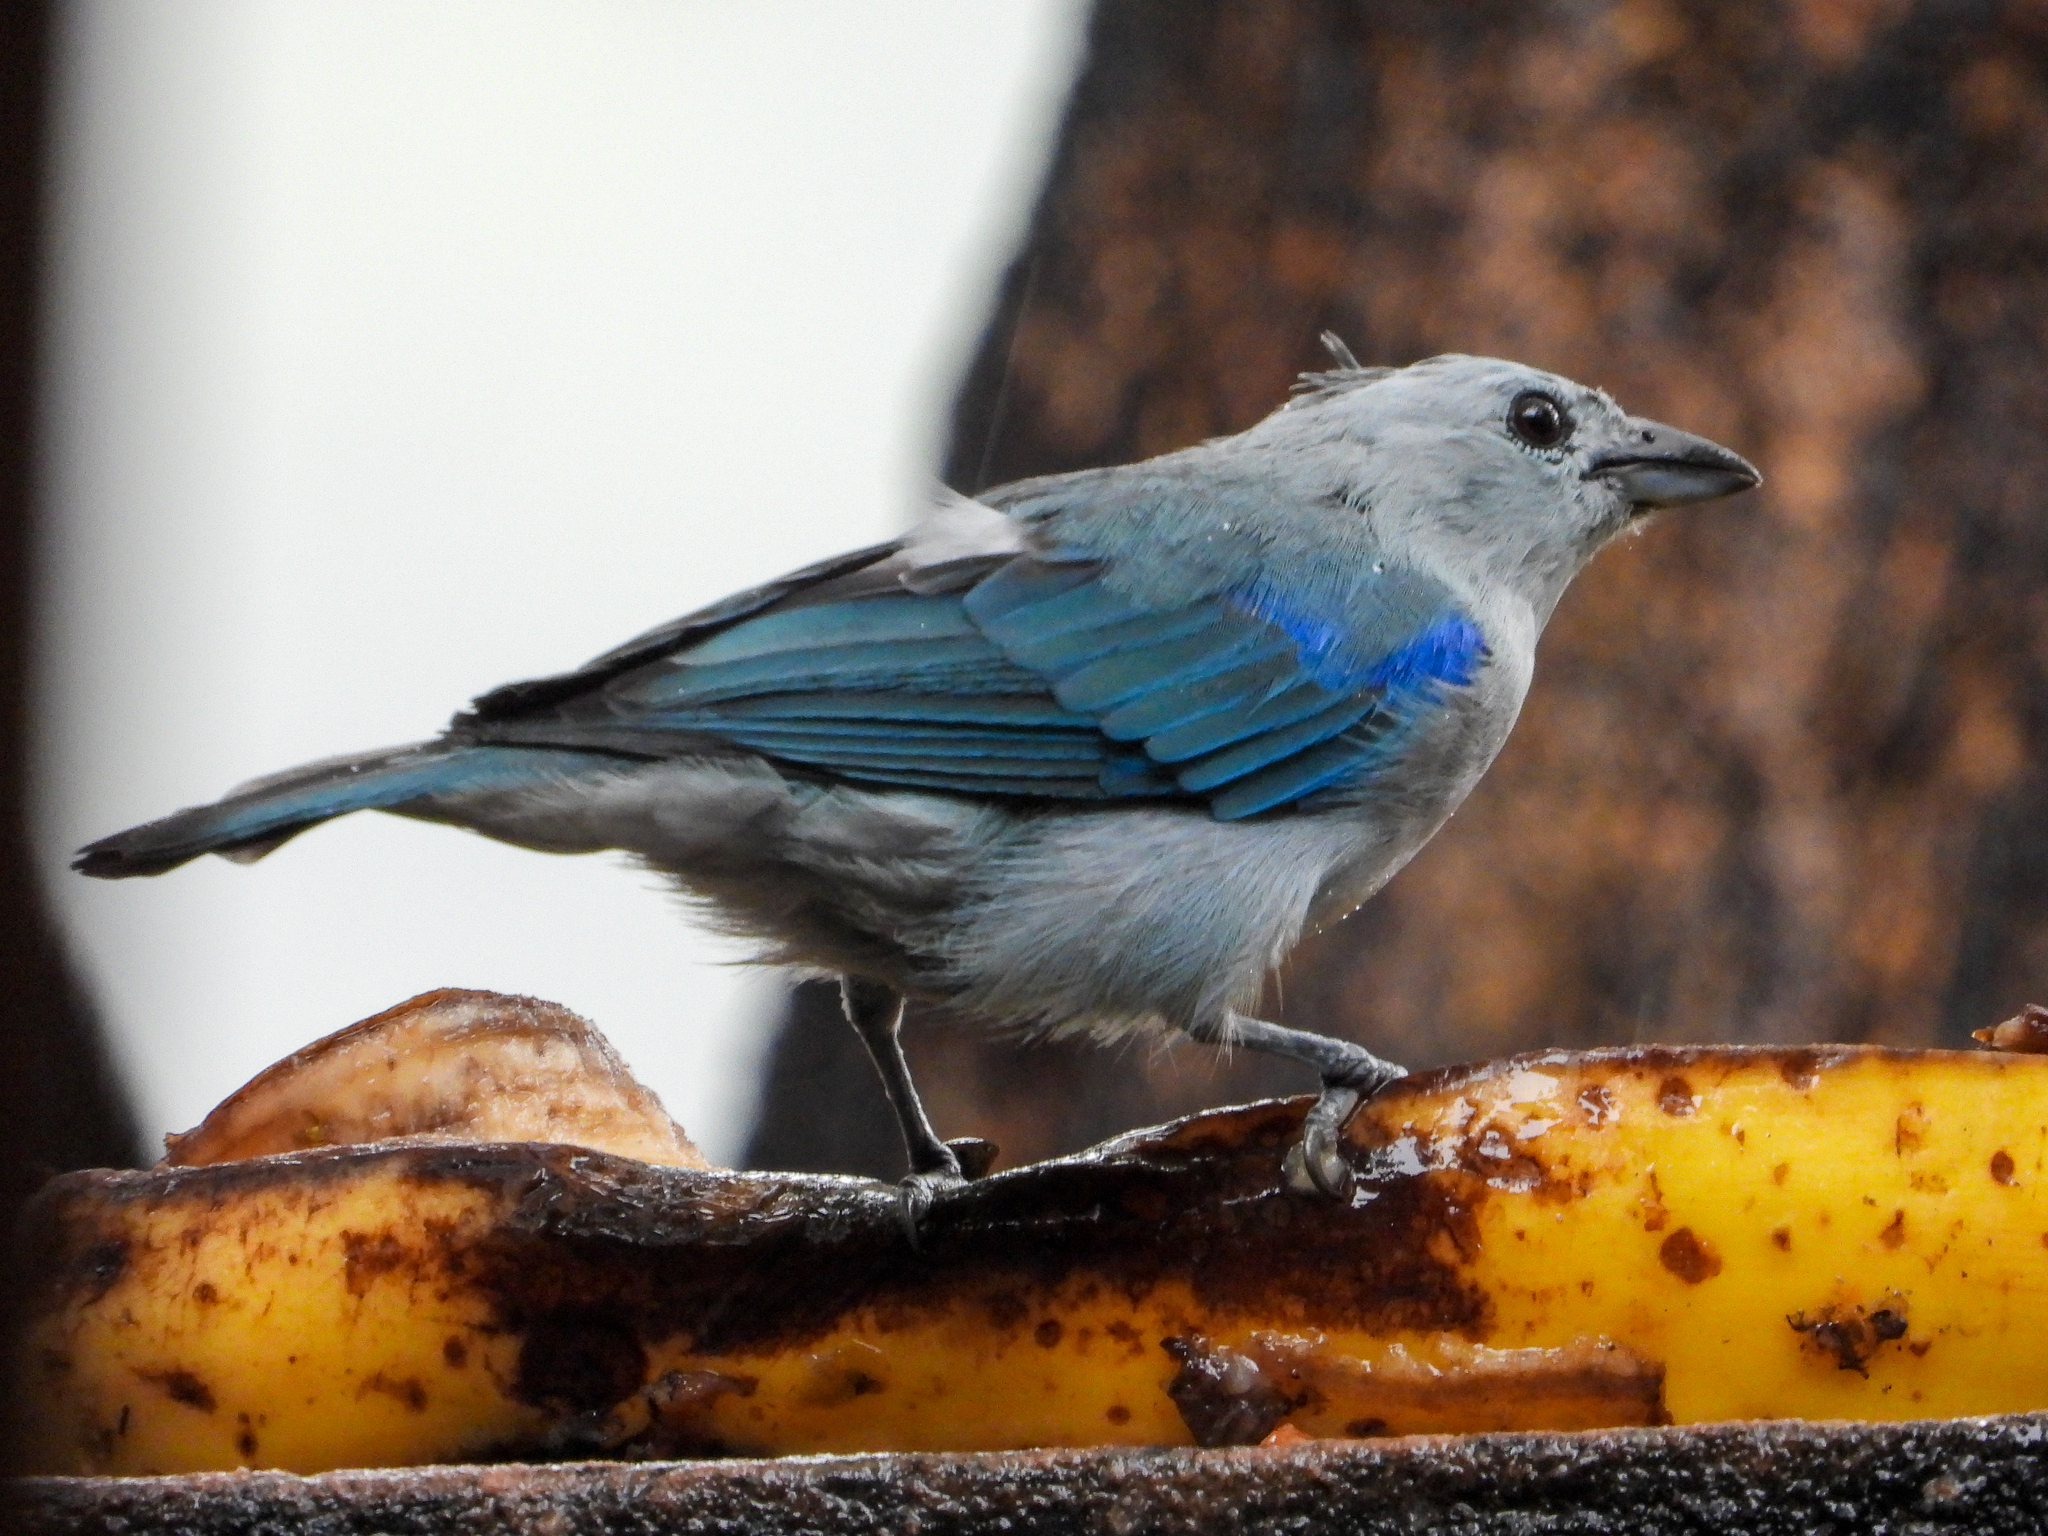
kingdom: Animalia
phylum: Chordata
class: Aves
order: Passeriformes
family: Thraupidae
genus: Thraupis
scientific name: Thraupis episcopus
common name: Blue-grey tanager
